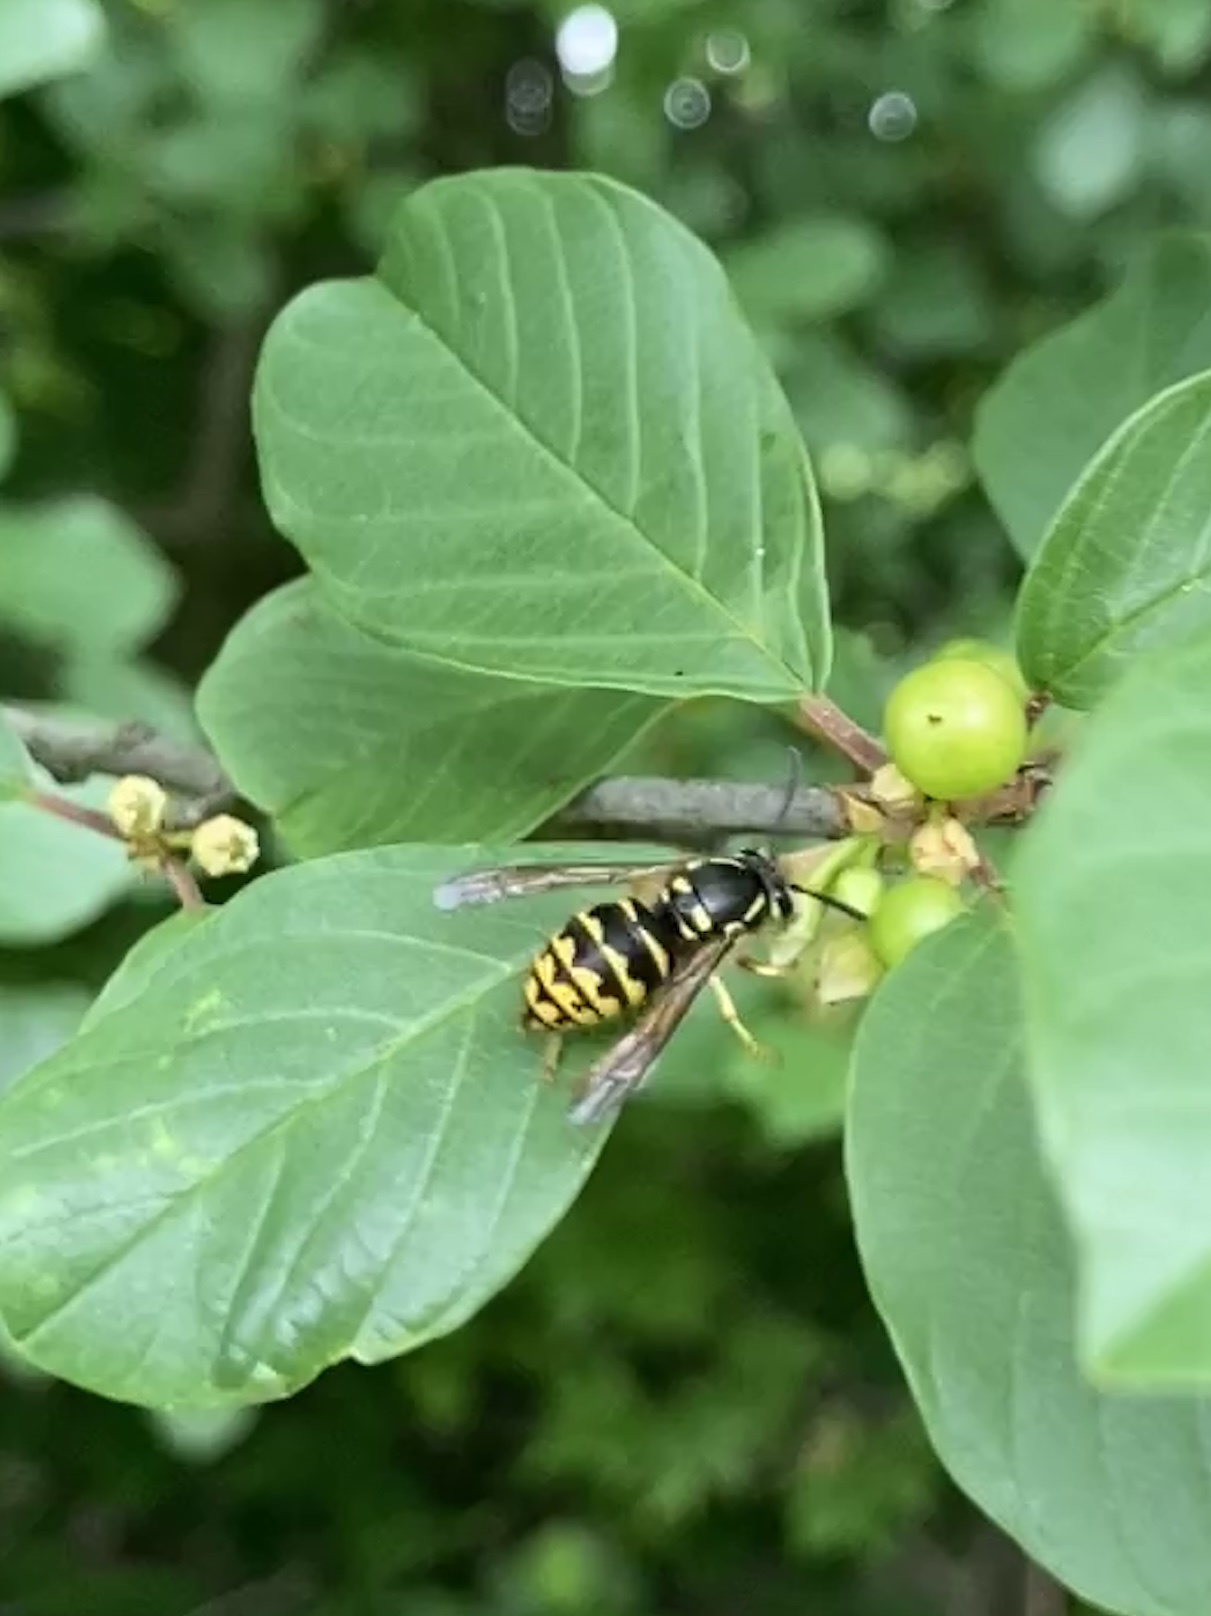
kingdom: Animalia
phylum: Arthropoda
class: Insecta
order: Hymenoptera
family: Vespidae
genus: Dolichovespula
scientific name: Dolichovespula arenaria
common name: Aerial yellowjacket
